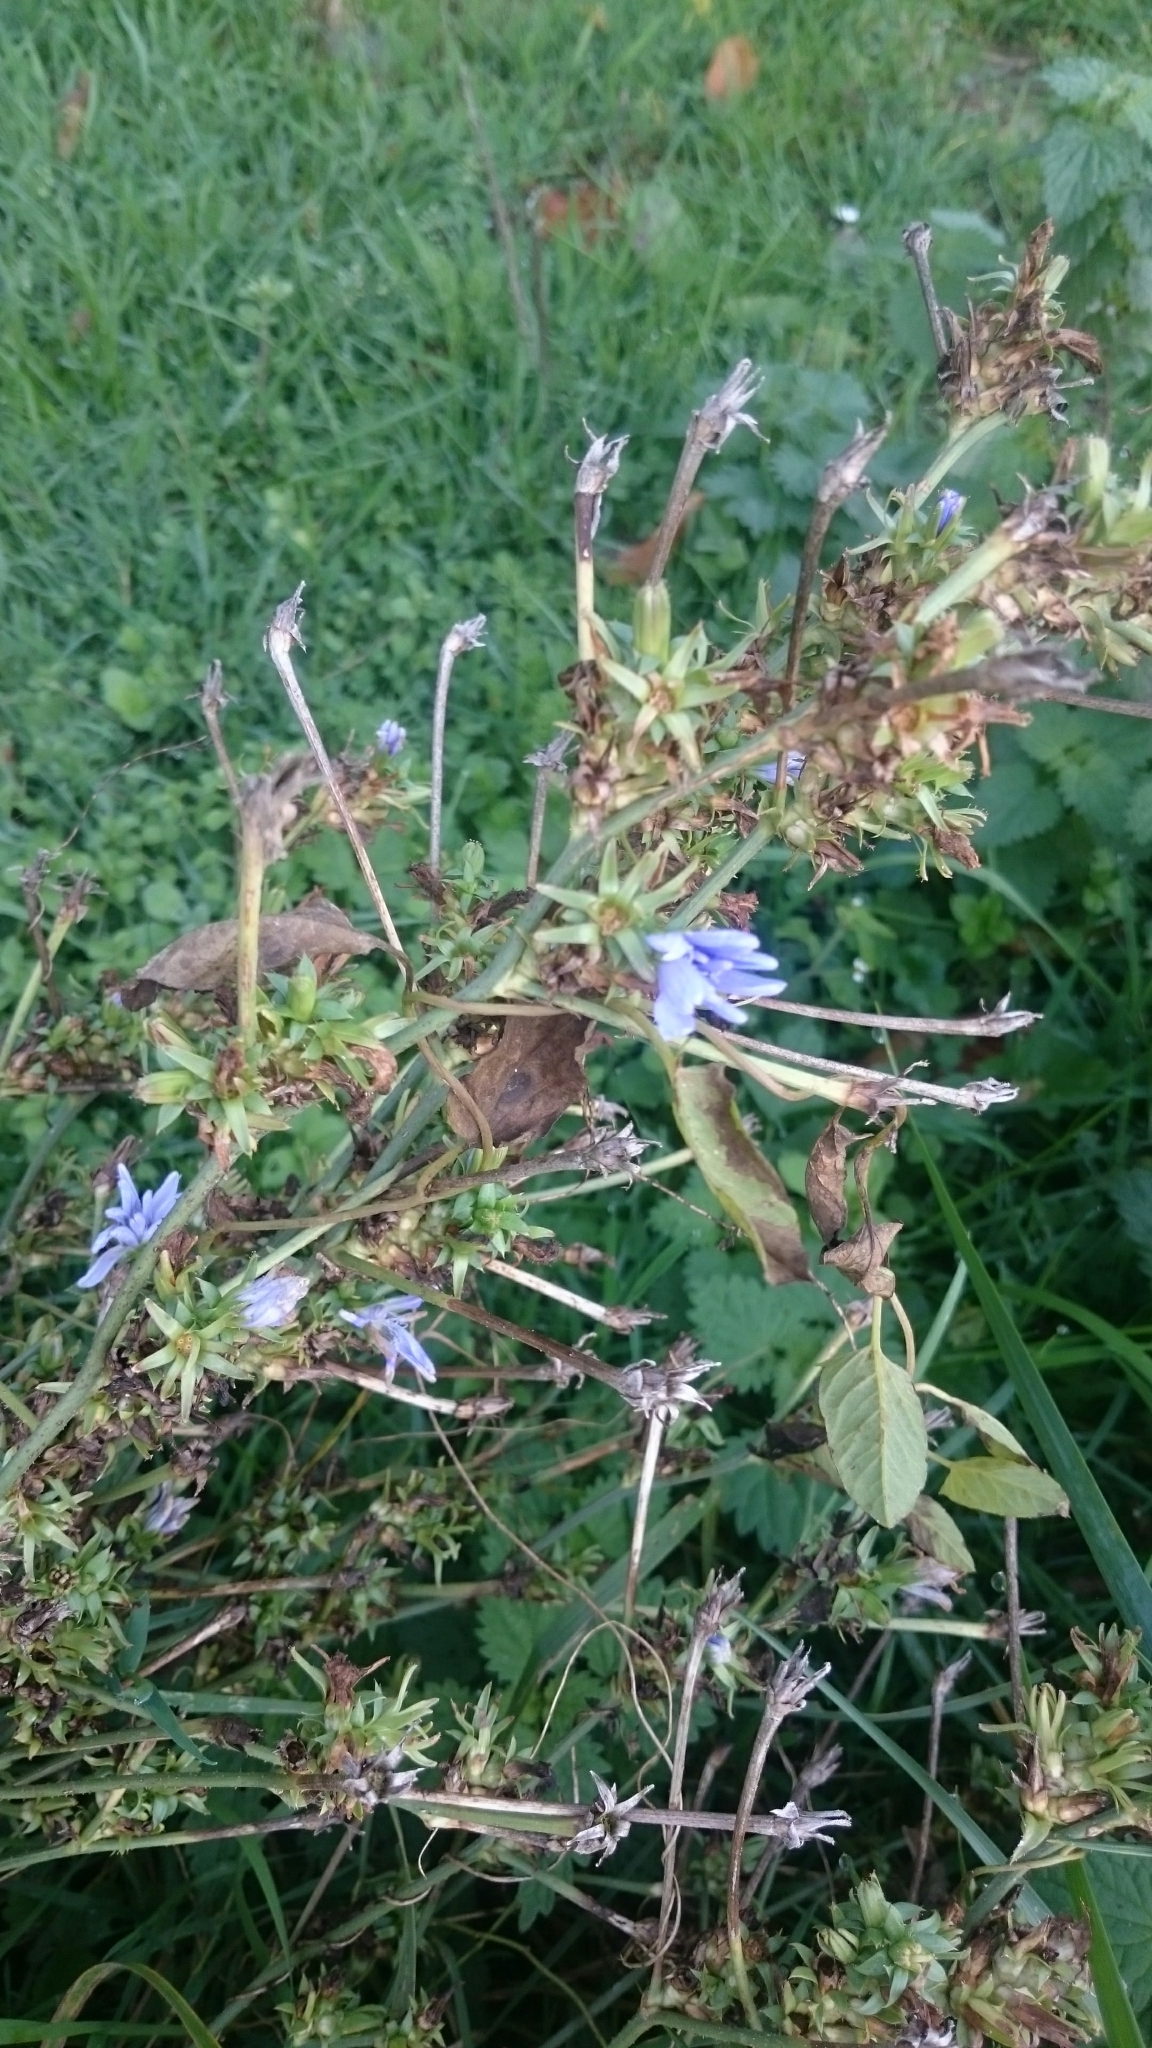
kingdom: Plantae
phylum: Tracheophyta
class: Magnoliopsida
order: Asterales
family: Asteraceae
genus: Cichorium
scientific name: Cichorium intybus
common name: Chicory
